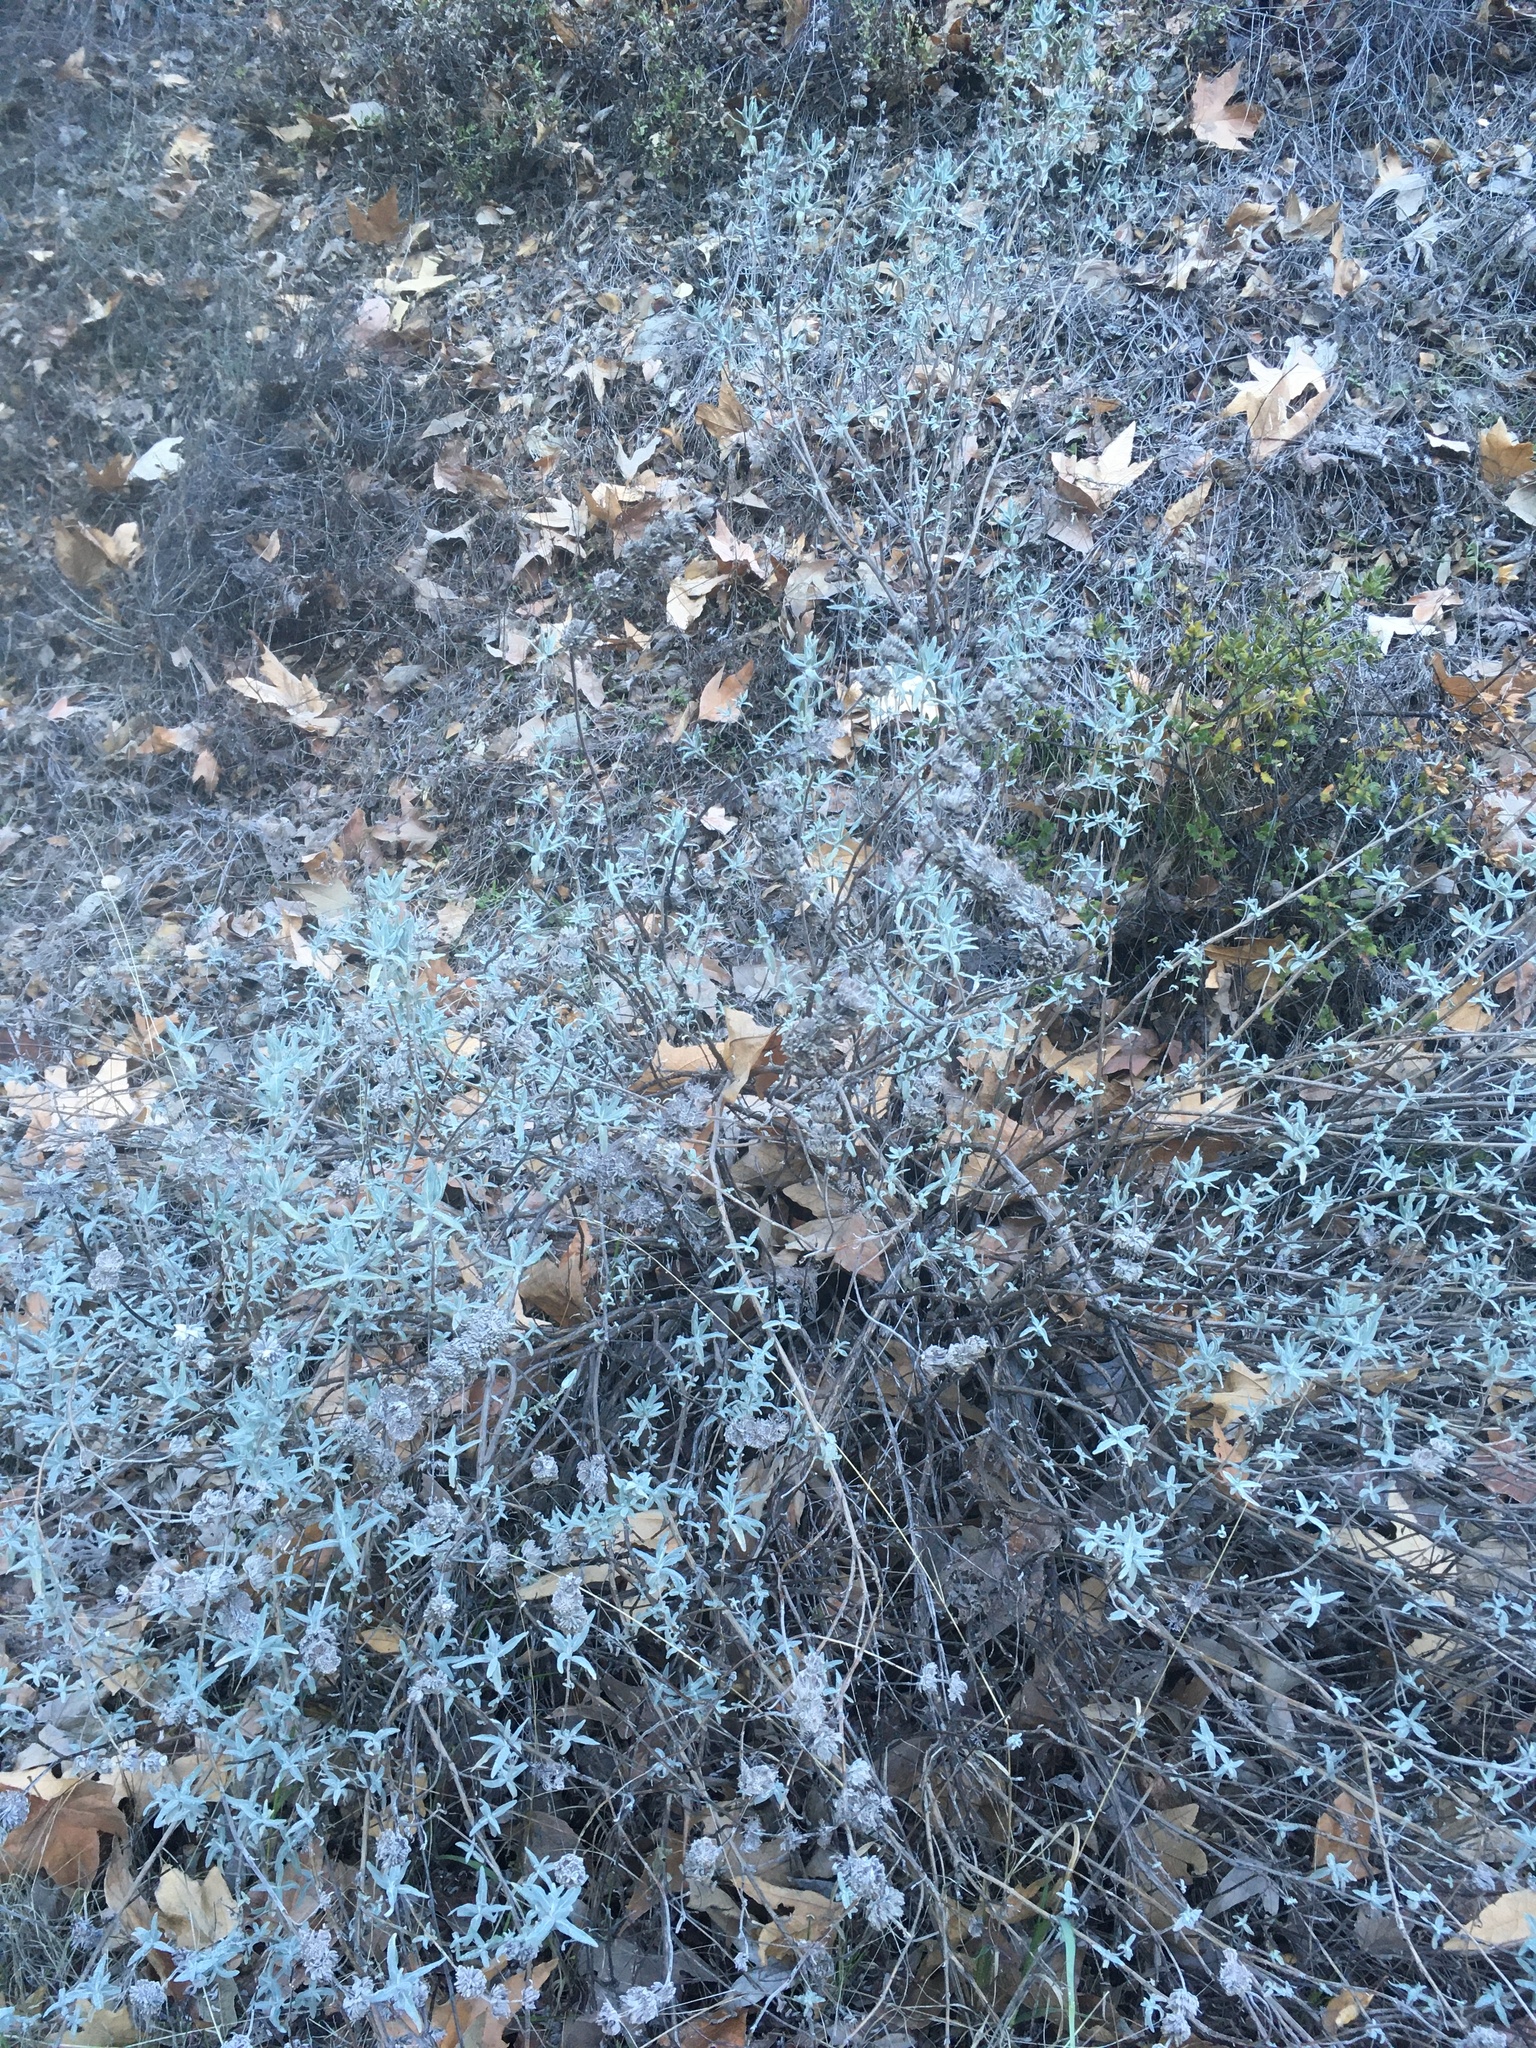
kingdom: Plantae
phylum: Tracheophyta
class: Magnoliopsida
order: Lamiales
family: Lamiaceae
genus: Salvia
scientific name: Salvia leucophylla
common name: Purple sage
